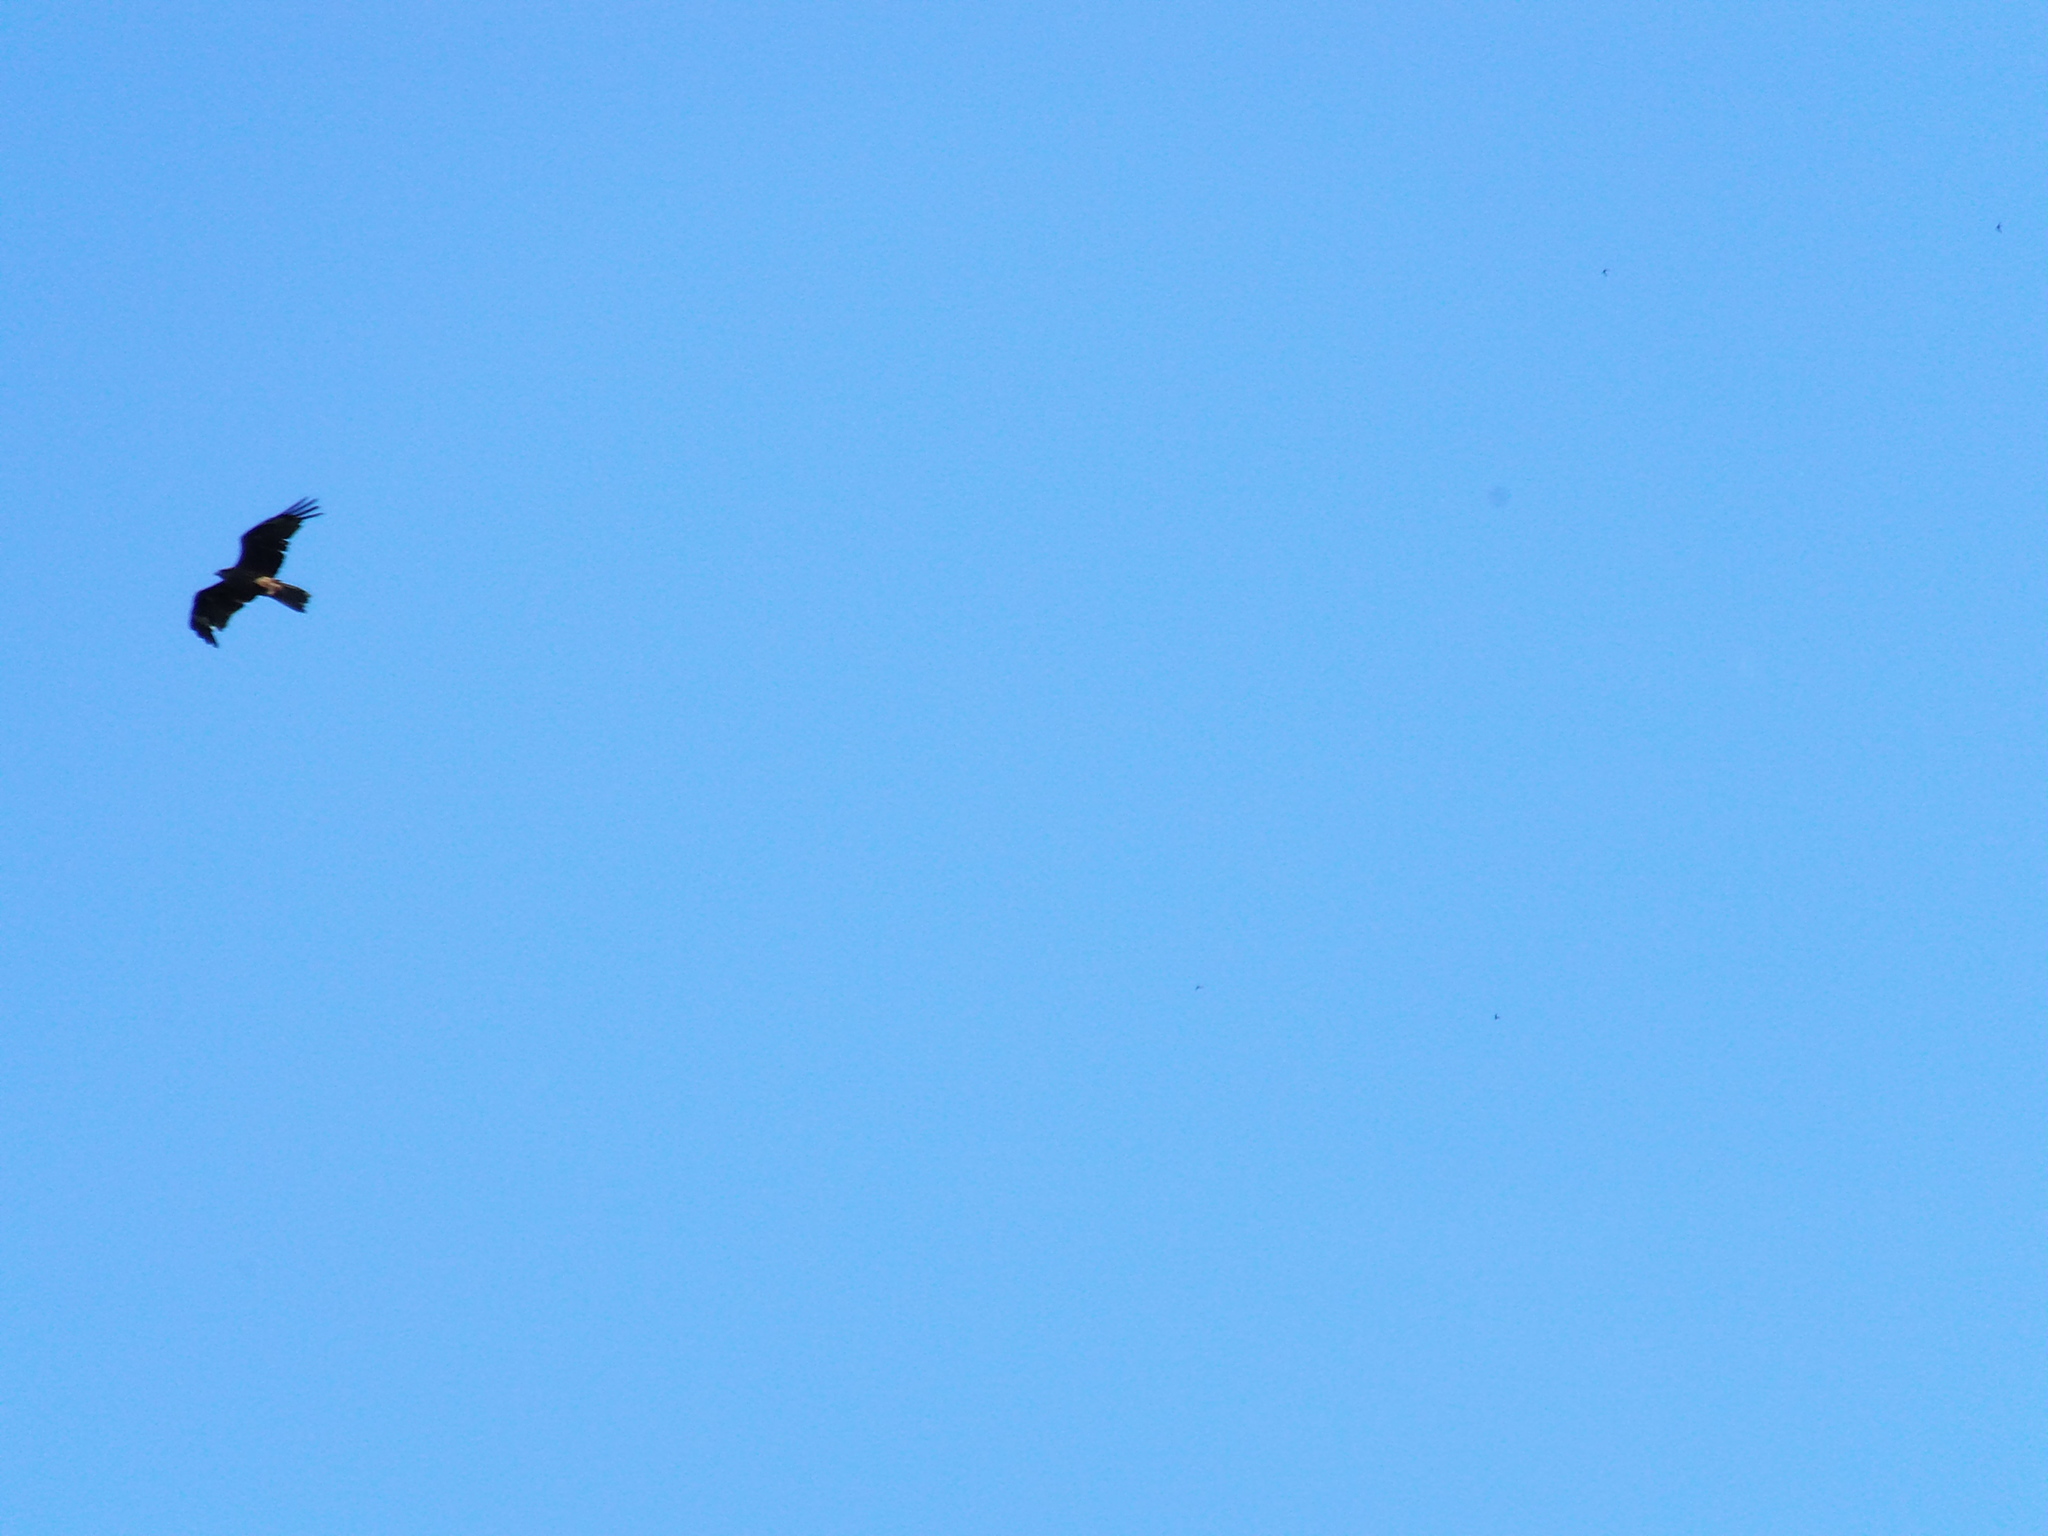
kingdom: Animalia
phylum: Chordata
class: Aves
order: Accipitriformes
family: Accipitridae
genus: Milvus
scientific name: Milvus migrans
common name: Black kite
